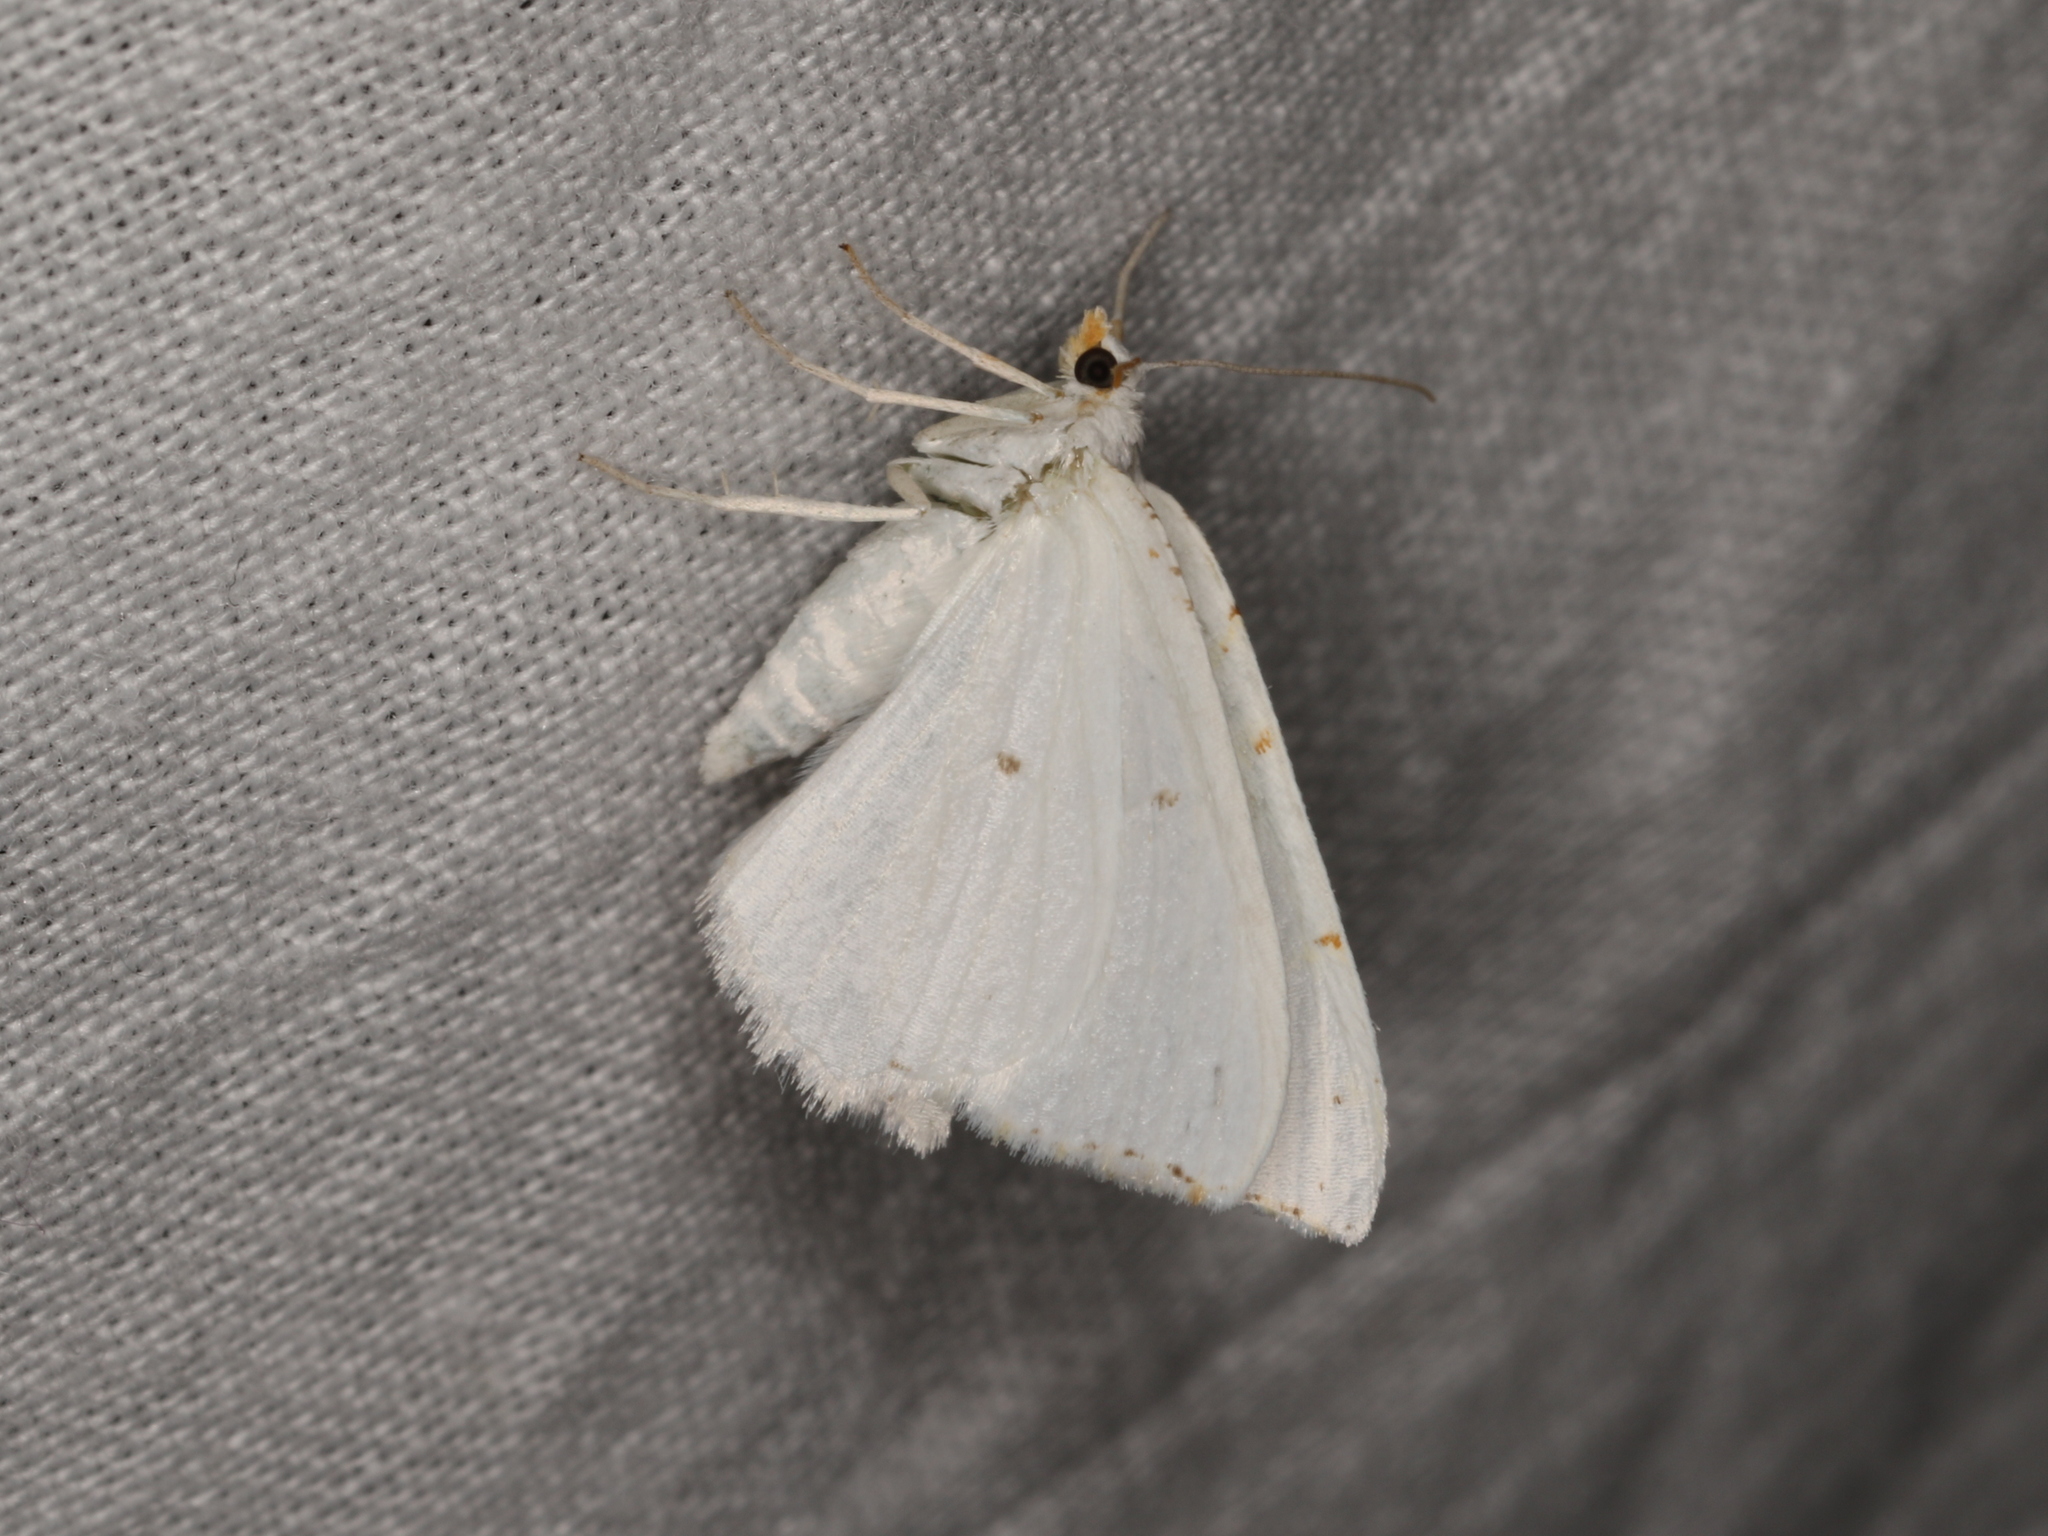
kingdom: Animalia
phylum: Arthropoda
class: Insecta
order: Lepidoptera
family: Geometridae
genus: Macaria
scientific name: Macaria pustularia
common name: Lesser maple spanworm moth
